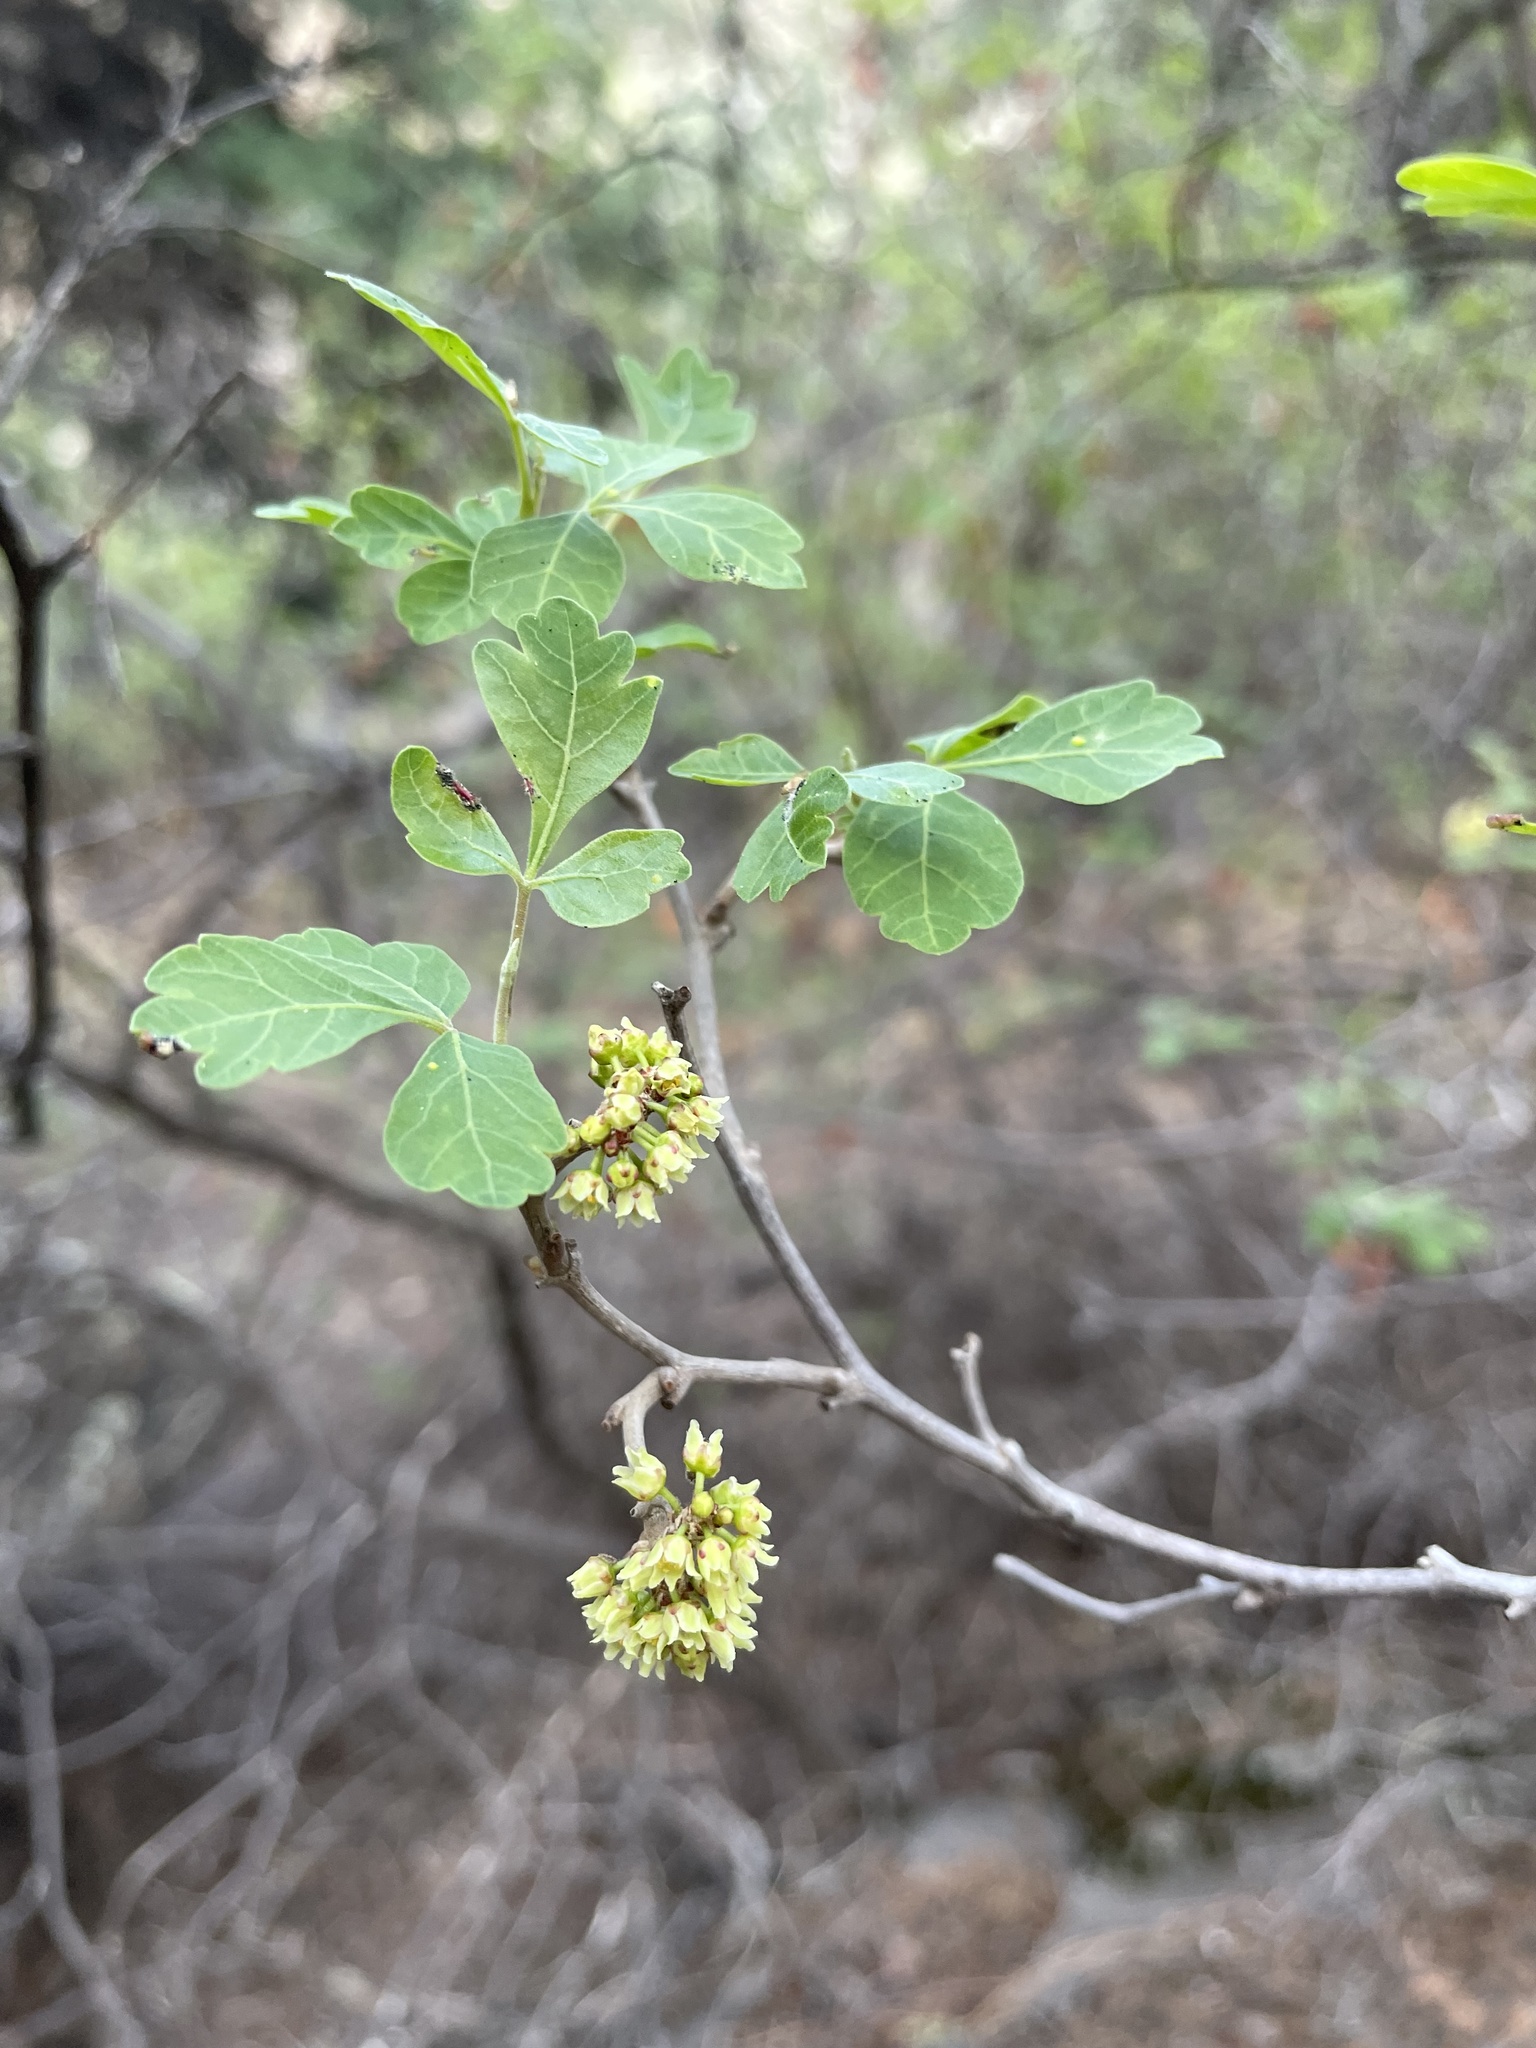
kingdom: Plantae
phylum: Tracheophyta
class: Magnoliopsida
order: Sapindales
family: Anacardiaceae
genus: Rhus
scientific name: Rhus trilobata
